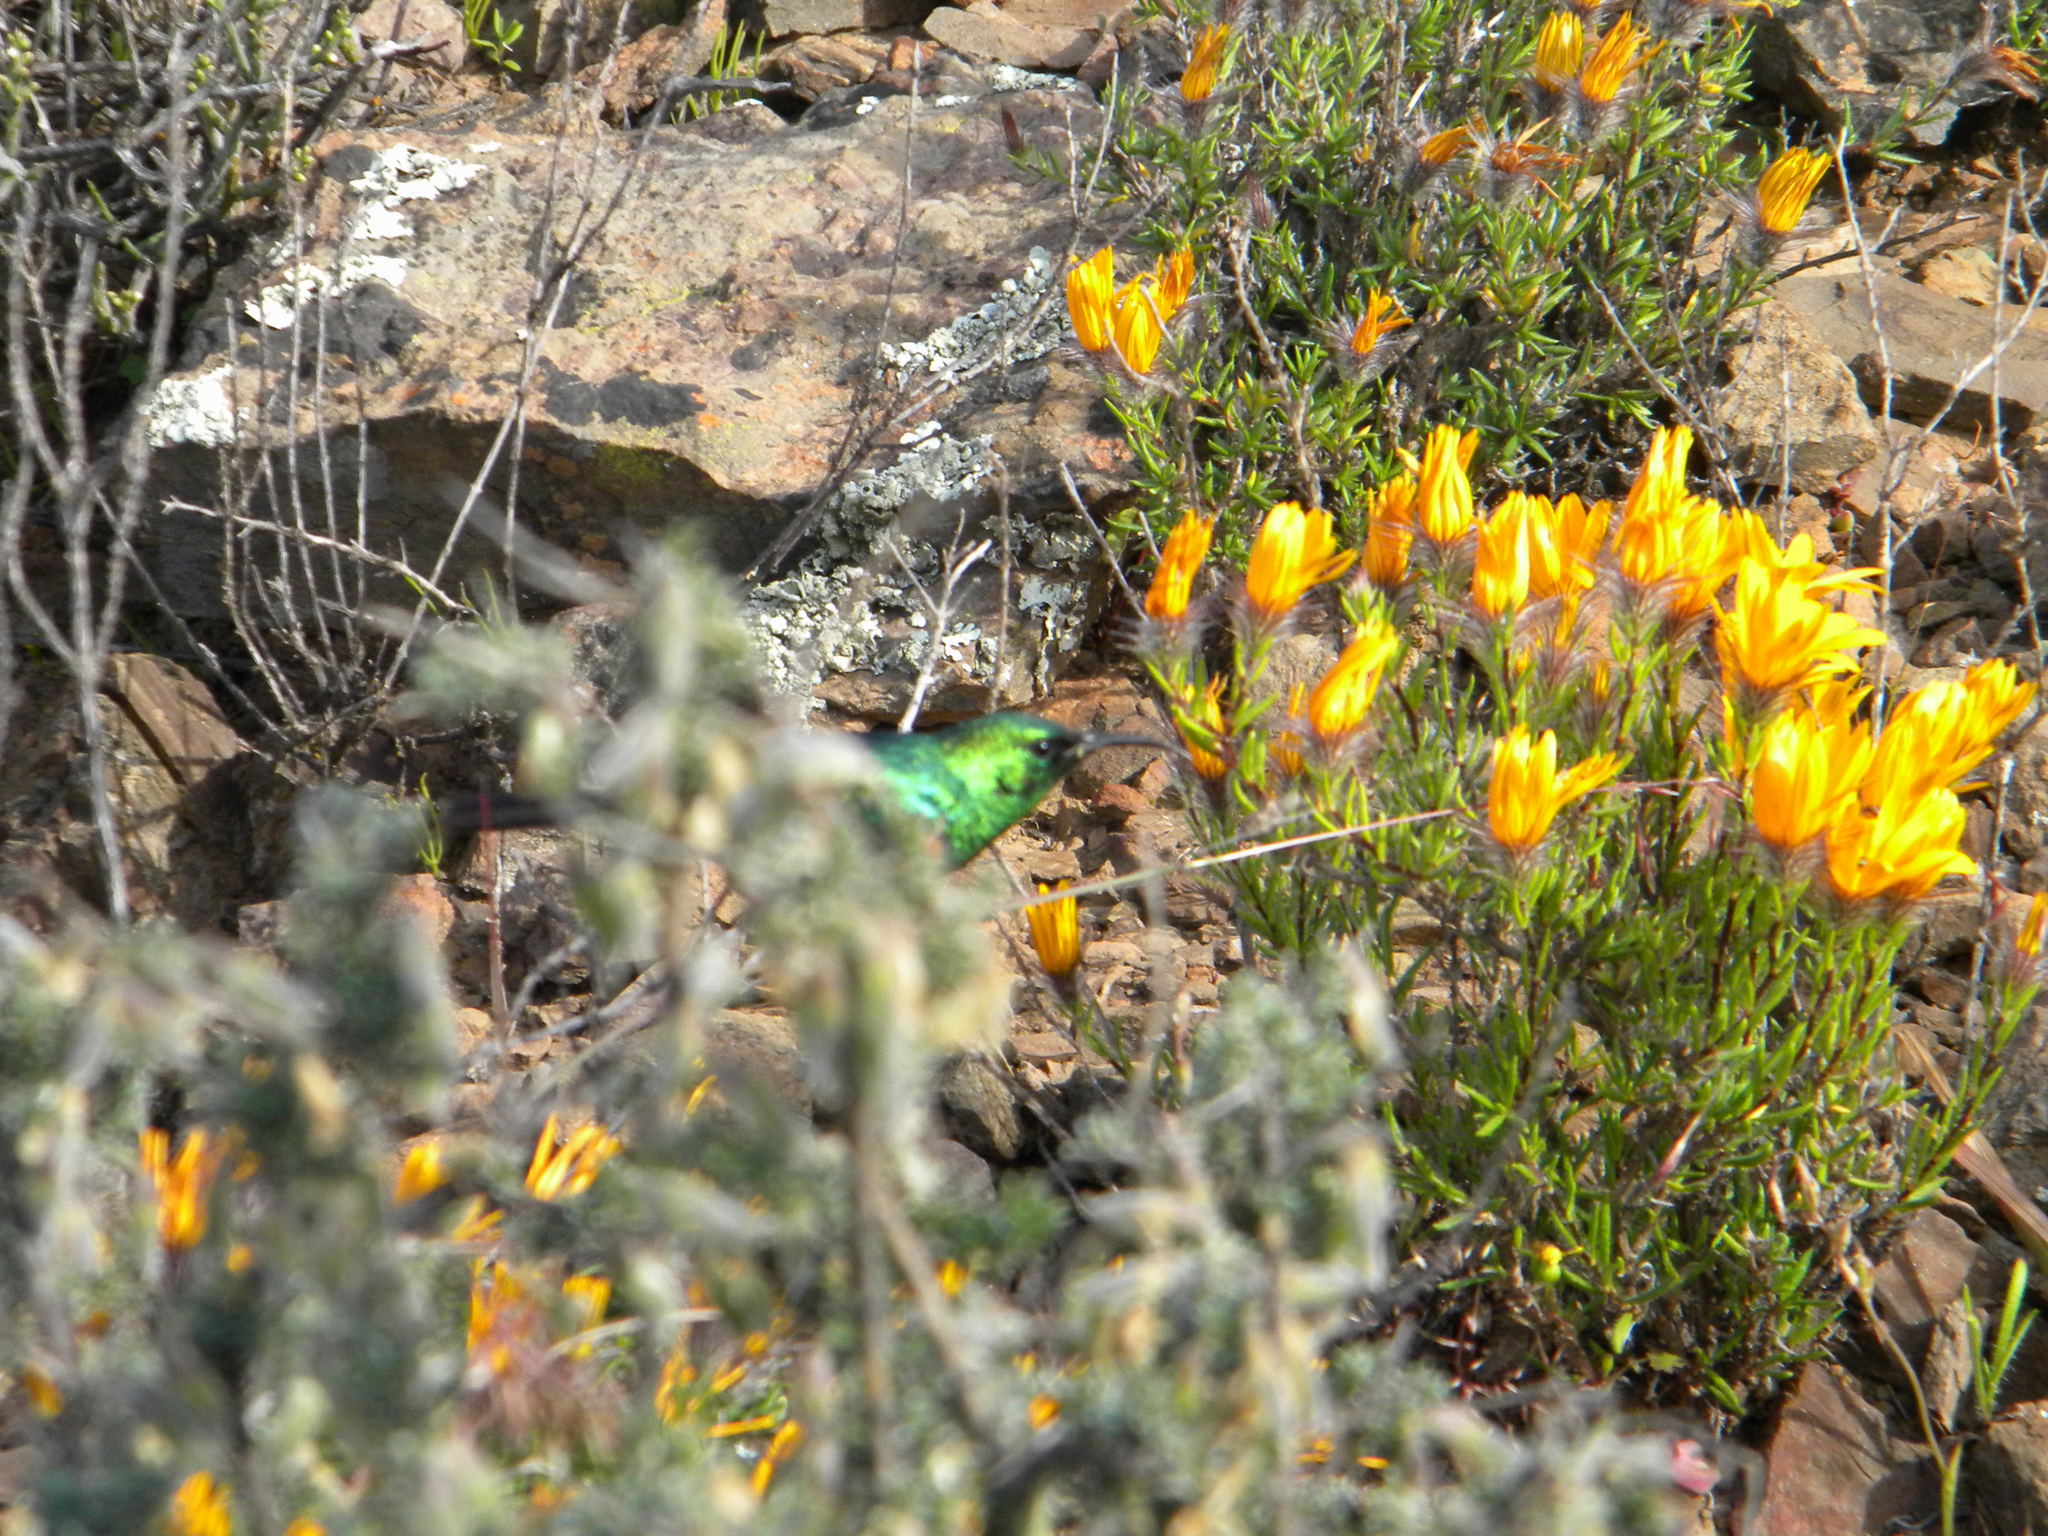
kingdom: Animalia
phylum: Chordata
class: Aves
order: Passeriformes
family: Nectariniidae
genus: Cinnyris
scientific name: Cinnyris chalybeus
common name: Southern double-collared sunbird
